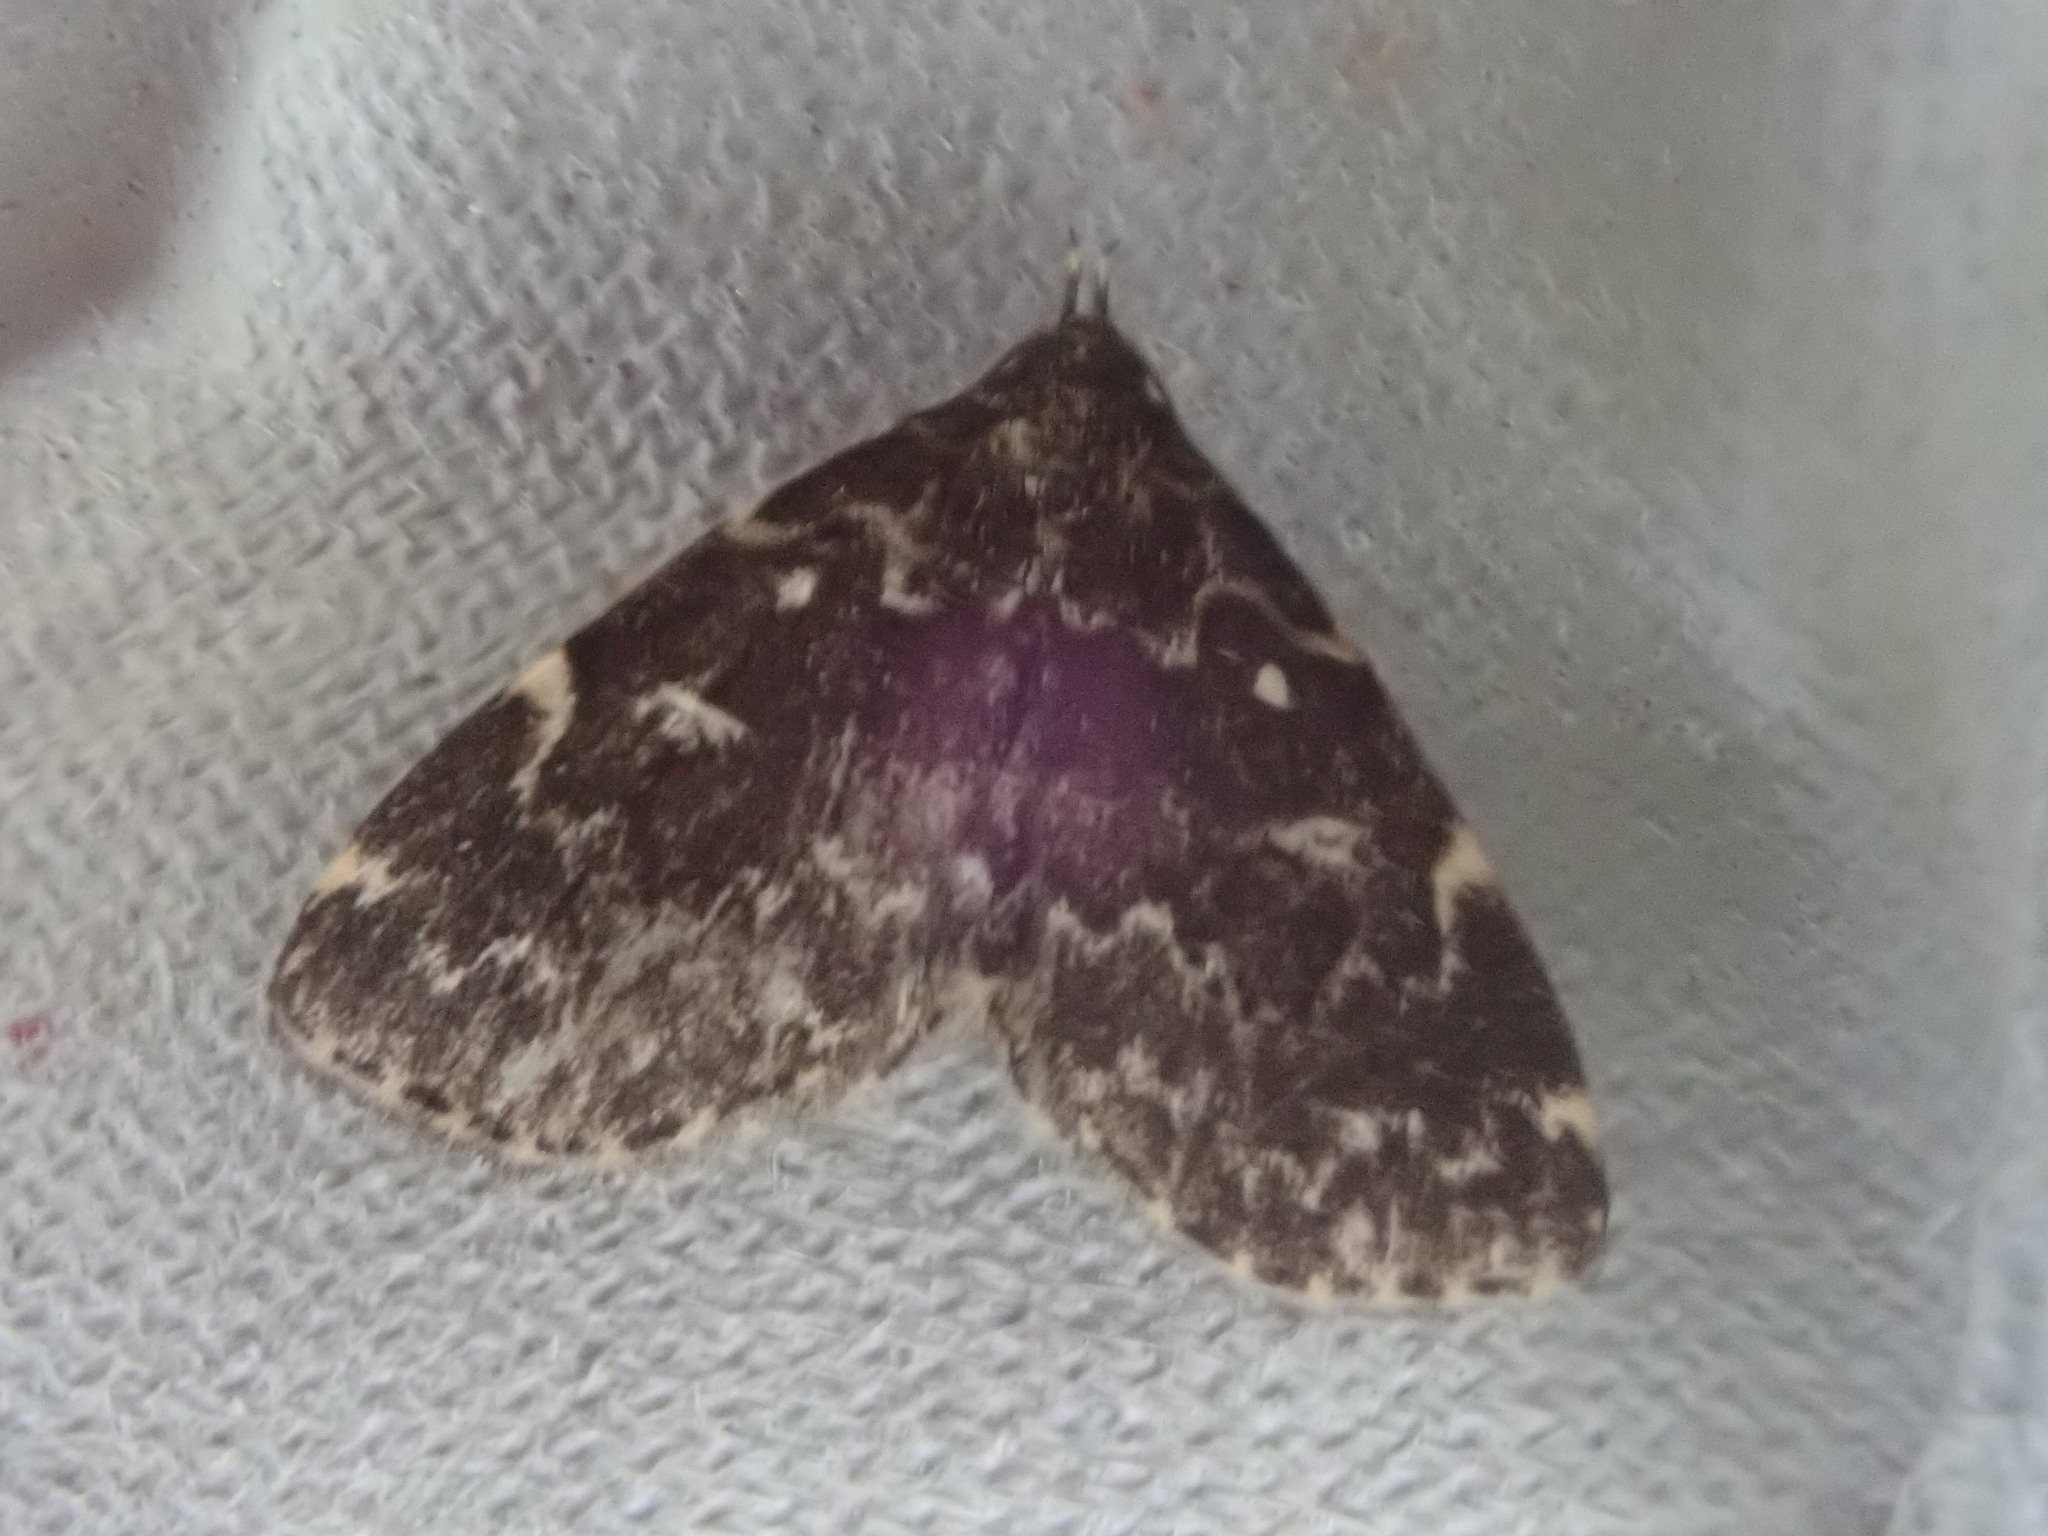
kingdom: Animalia
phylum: Arthropoda
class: Insecta
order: Lepidoptera
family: Erebidae
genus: Idia
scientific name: Idia scobialis
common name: Smoky idia moth
